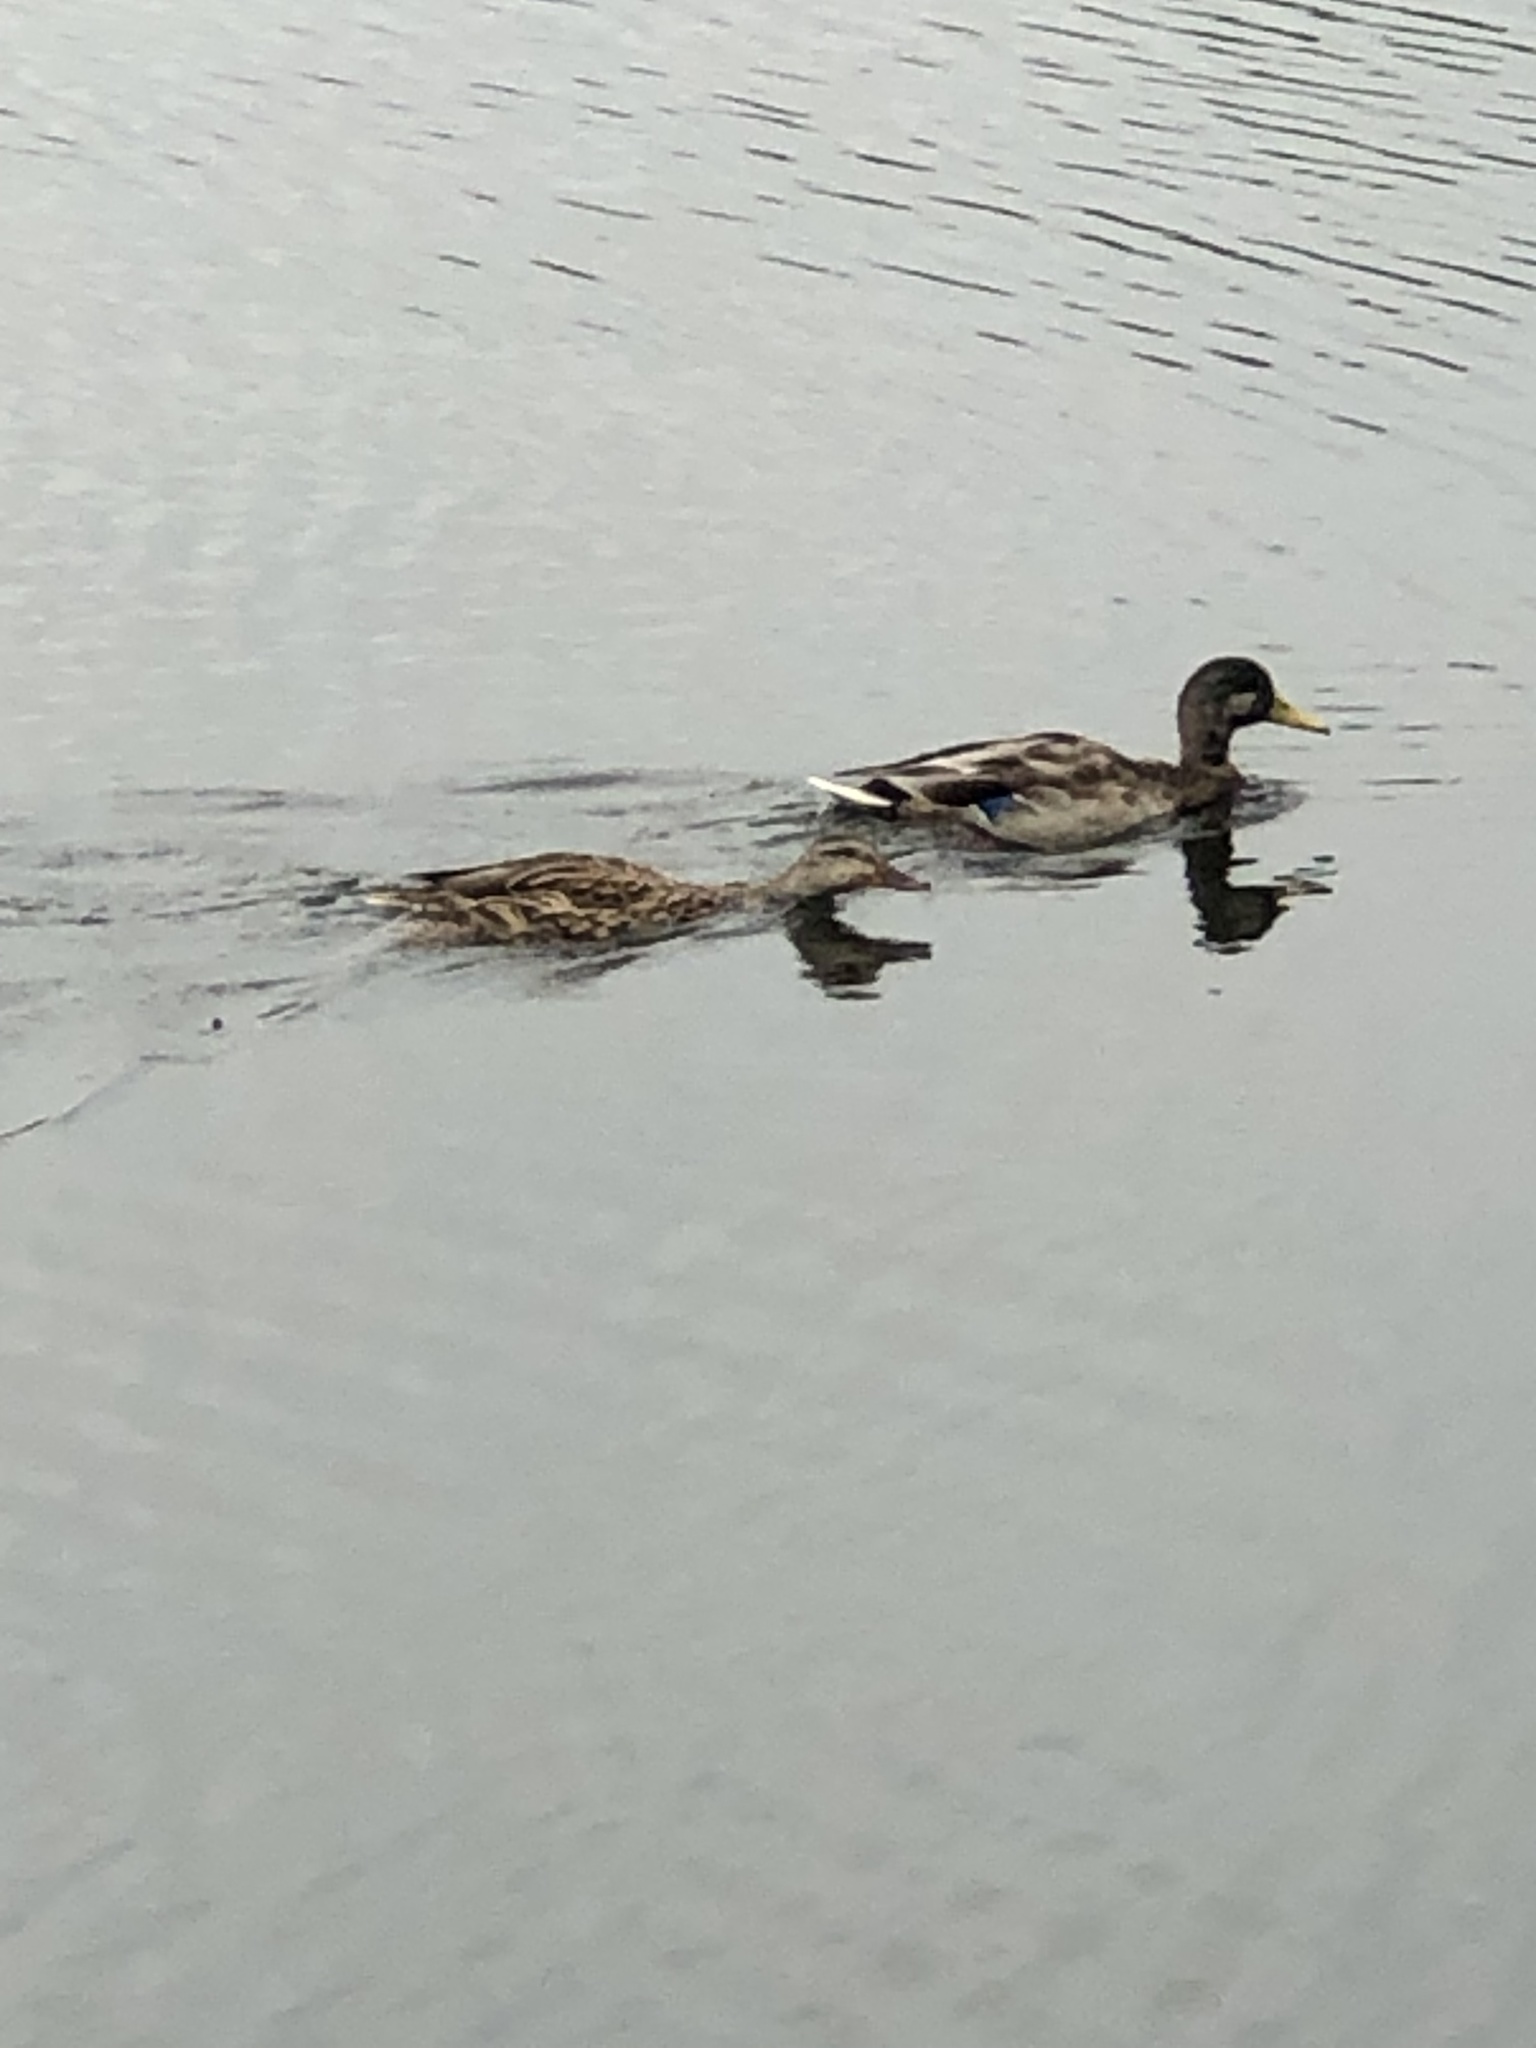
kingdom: Animalia
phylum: Chordata
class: Aves
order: Anseriformes
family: Anatidae
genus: Anas
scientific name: Anas platyrhynchos
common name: Mallard
